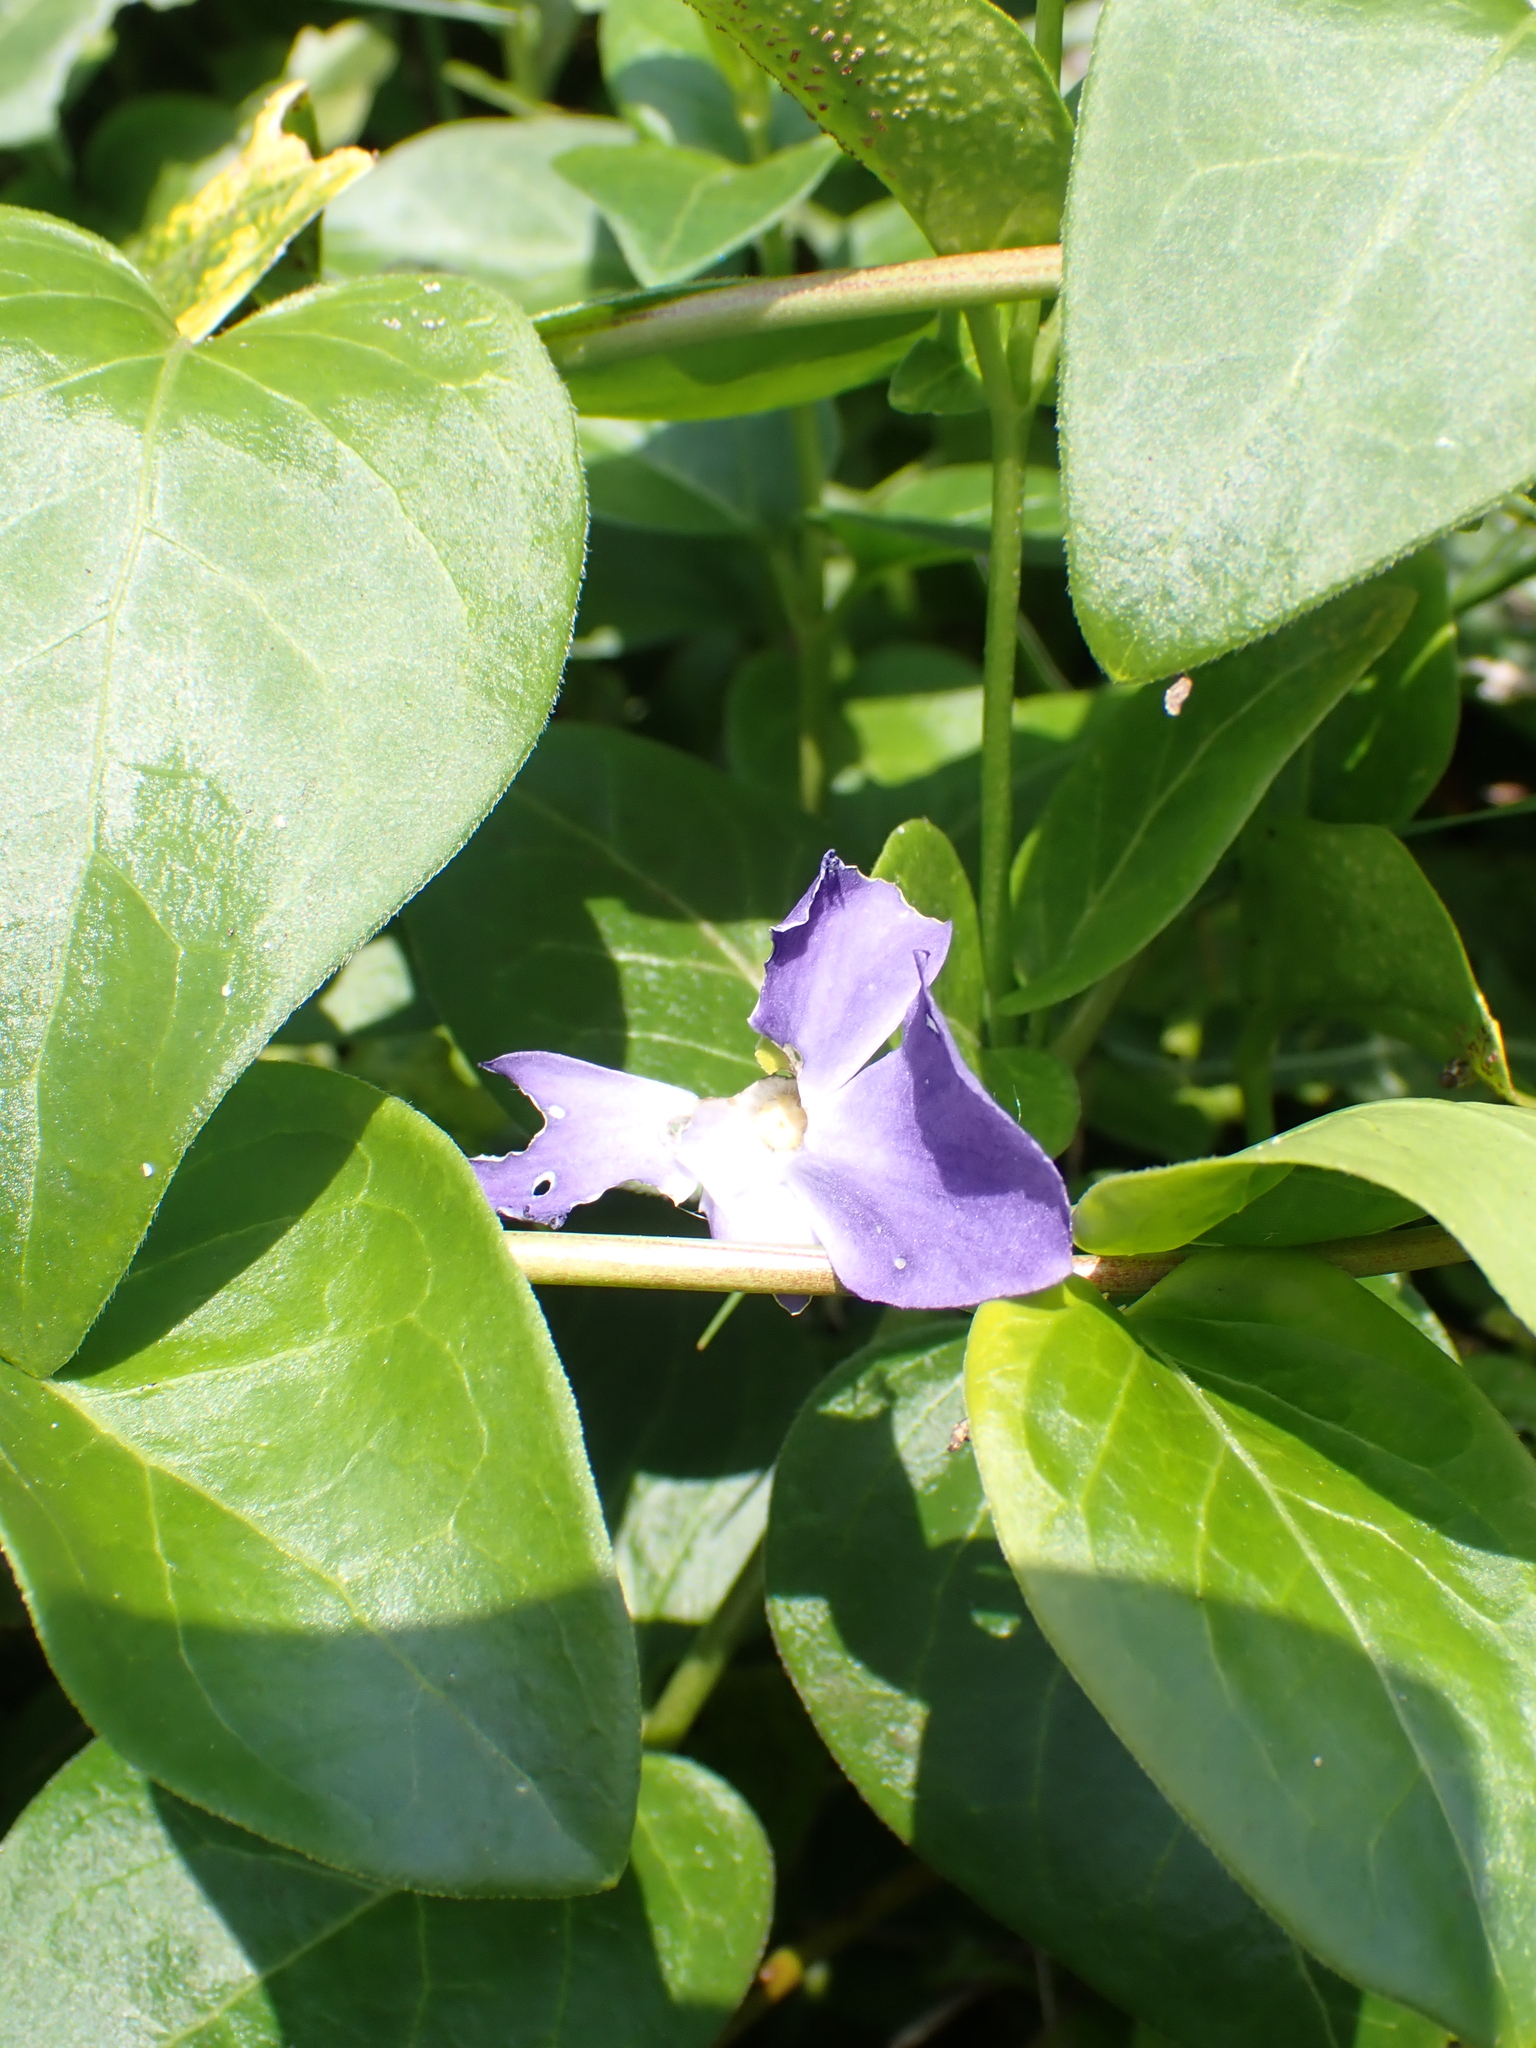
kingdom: Plantae
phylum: Tracheophyta
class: Magnoliopsida
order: Gentianales
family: Apocynaceae
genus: Vinca
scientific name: Vinca major
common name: Greater periwinkle
